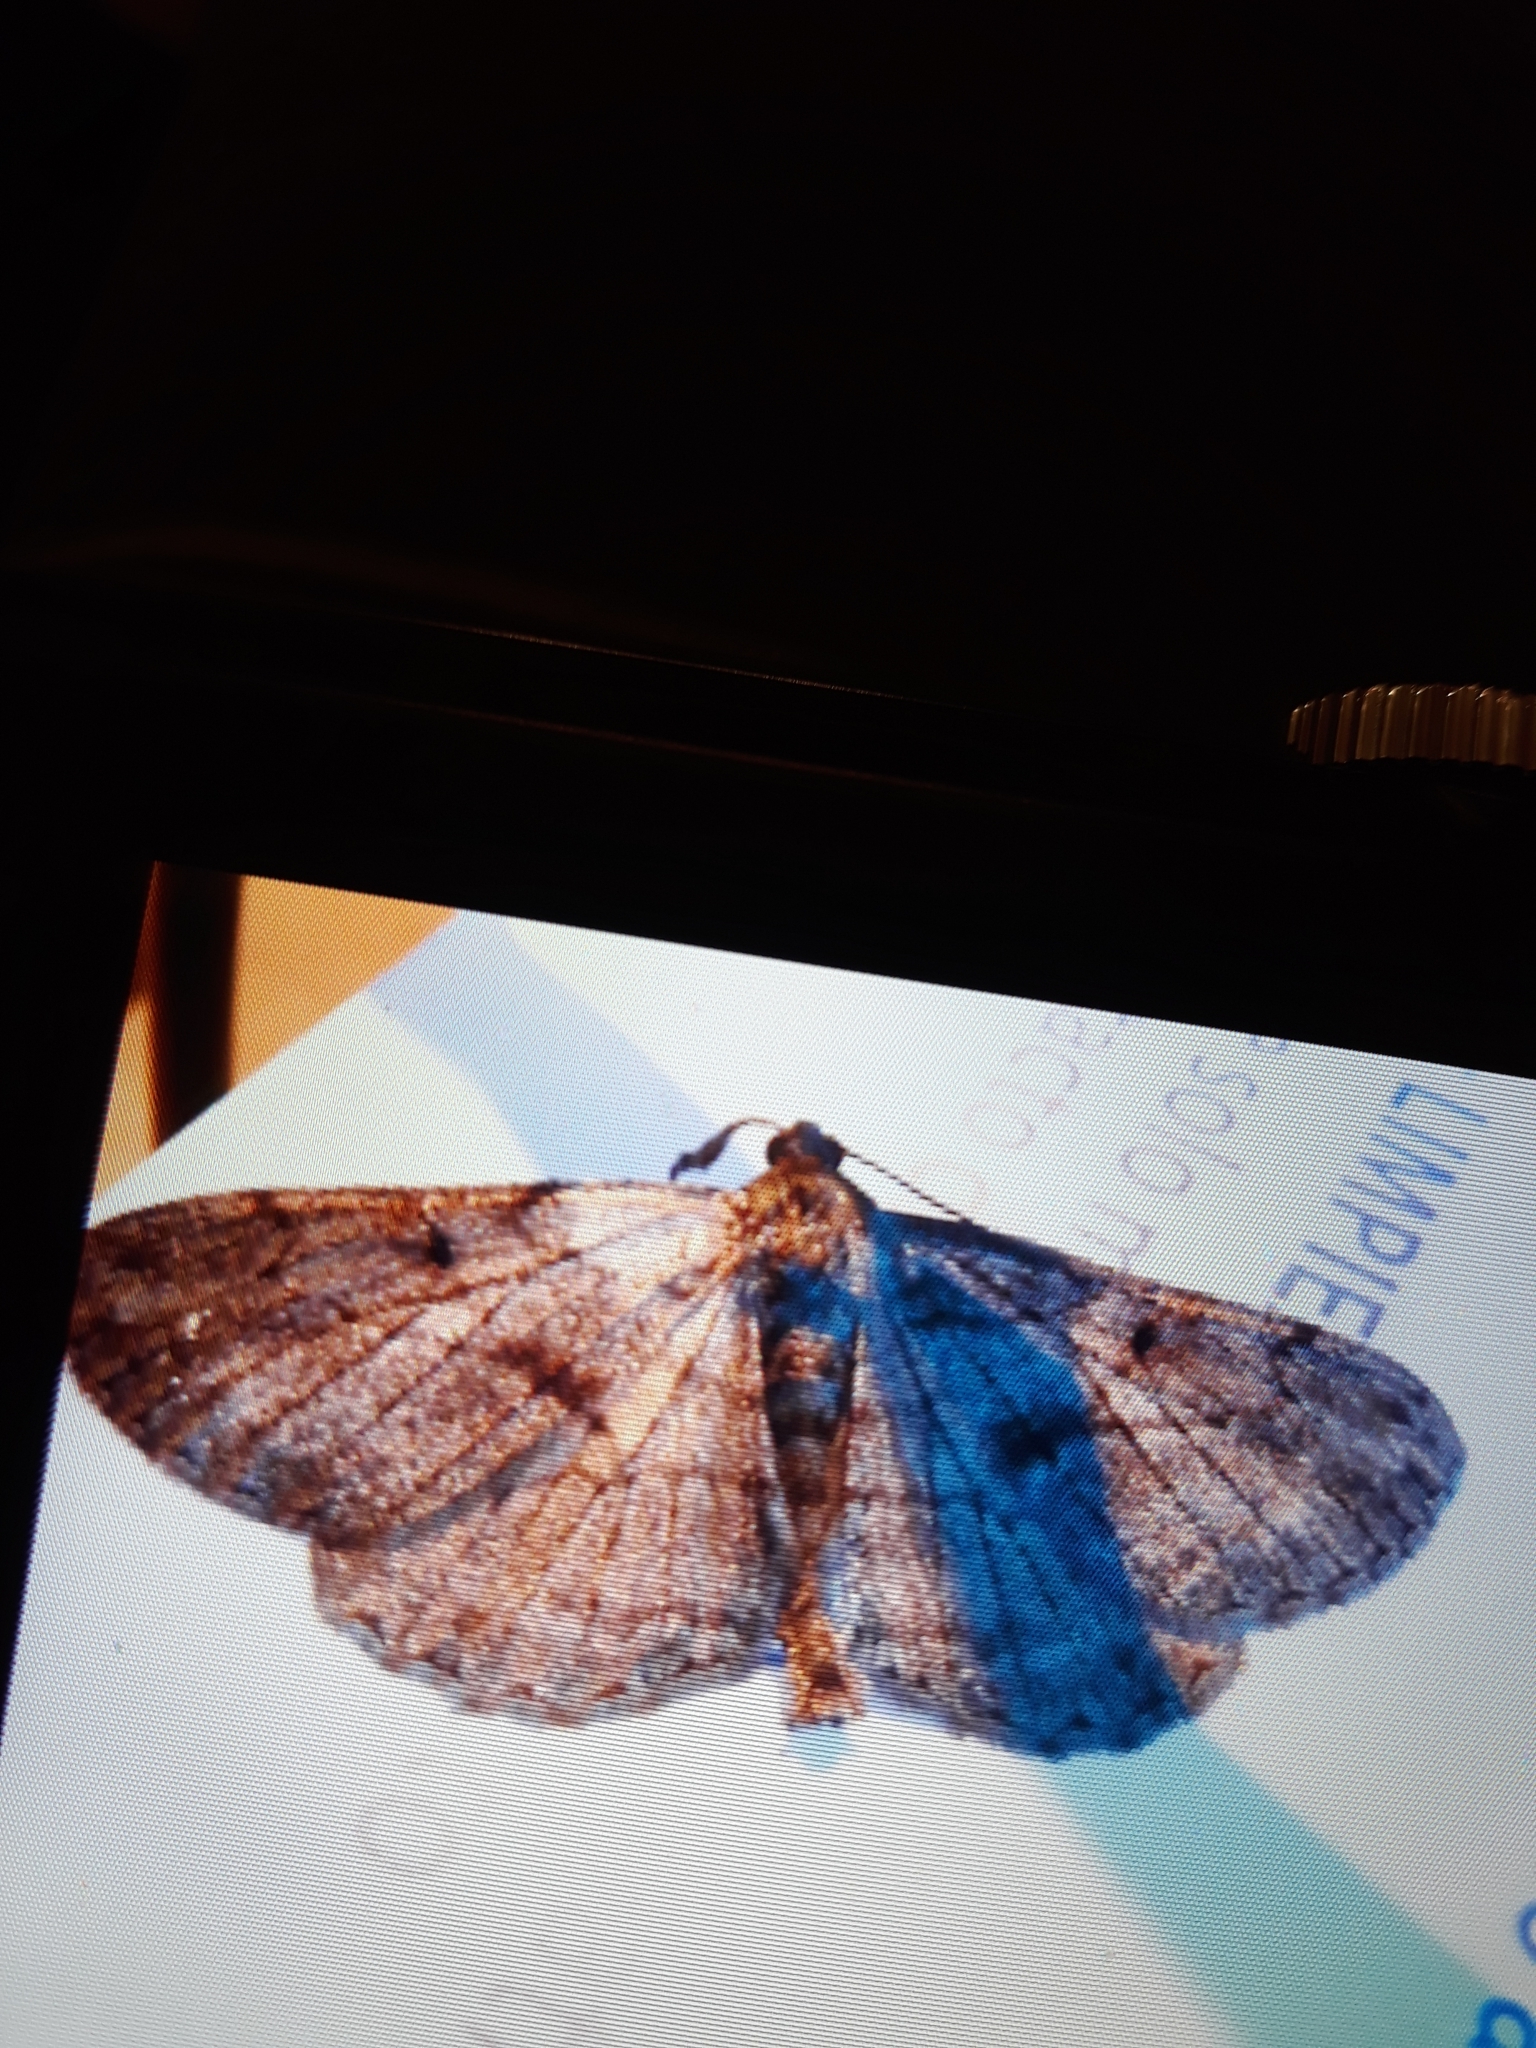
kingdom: Animalia
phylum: Arthropoda
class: Insecta
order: Lepidoptera
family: Geometridae
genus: Peribatodes
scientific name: Peribatodes rhomboidaria
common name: Willow beauty
